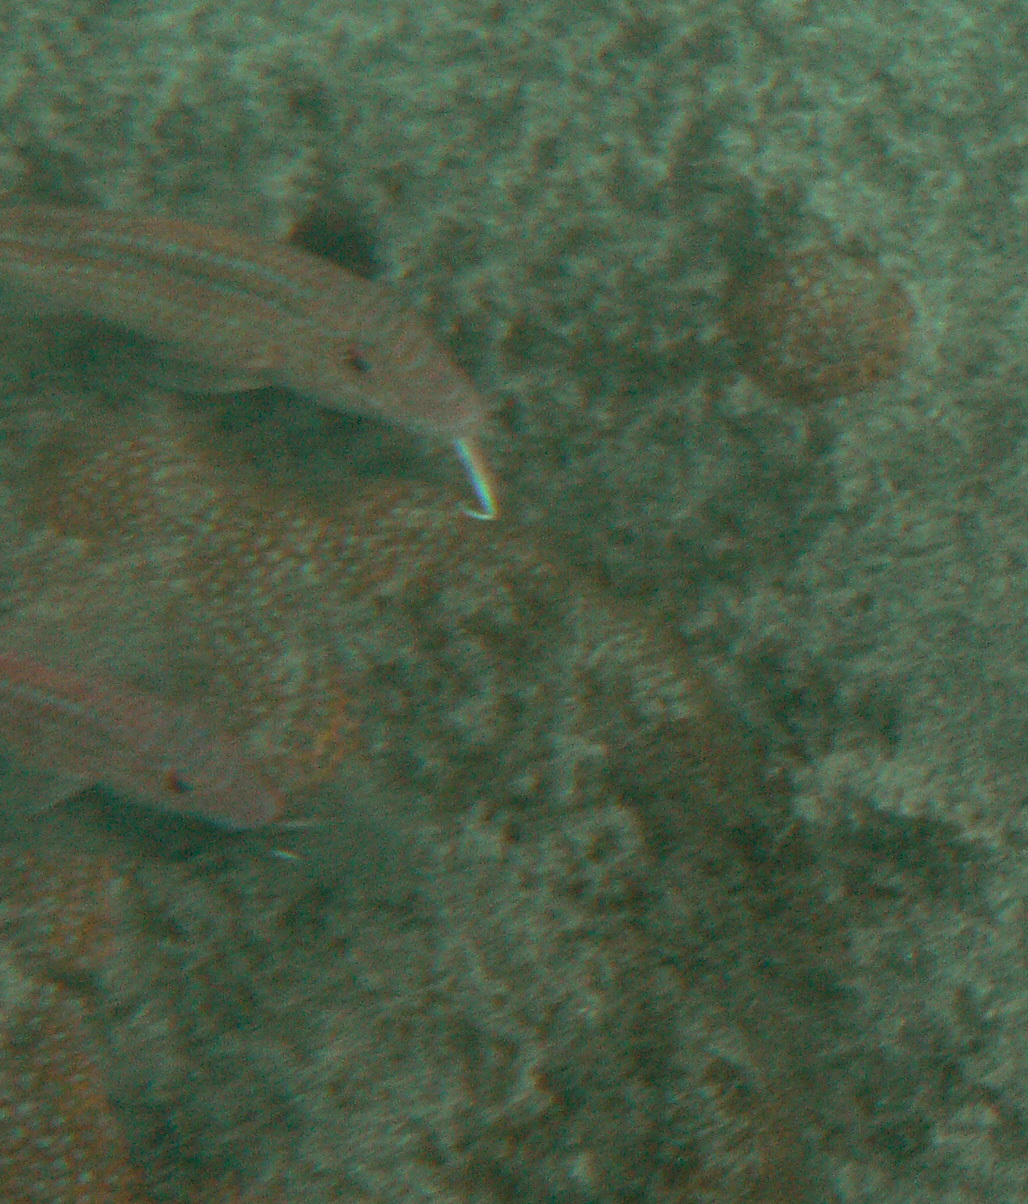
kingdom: Animalia
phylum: Chordata
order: Perciformes
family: Mullidae
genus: Pseudupeneus
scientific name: Pseudupeneus prayensis
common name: West african goatfish
